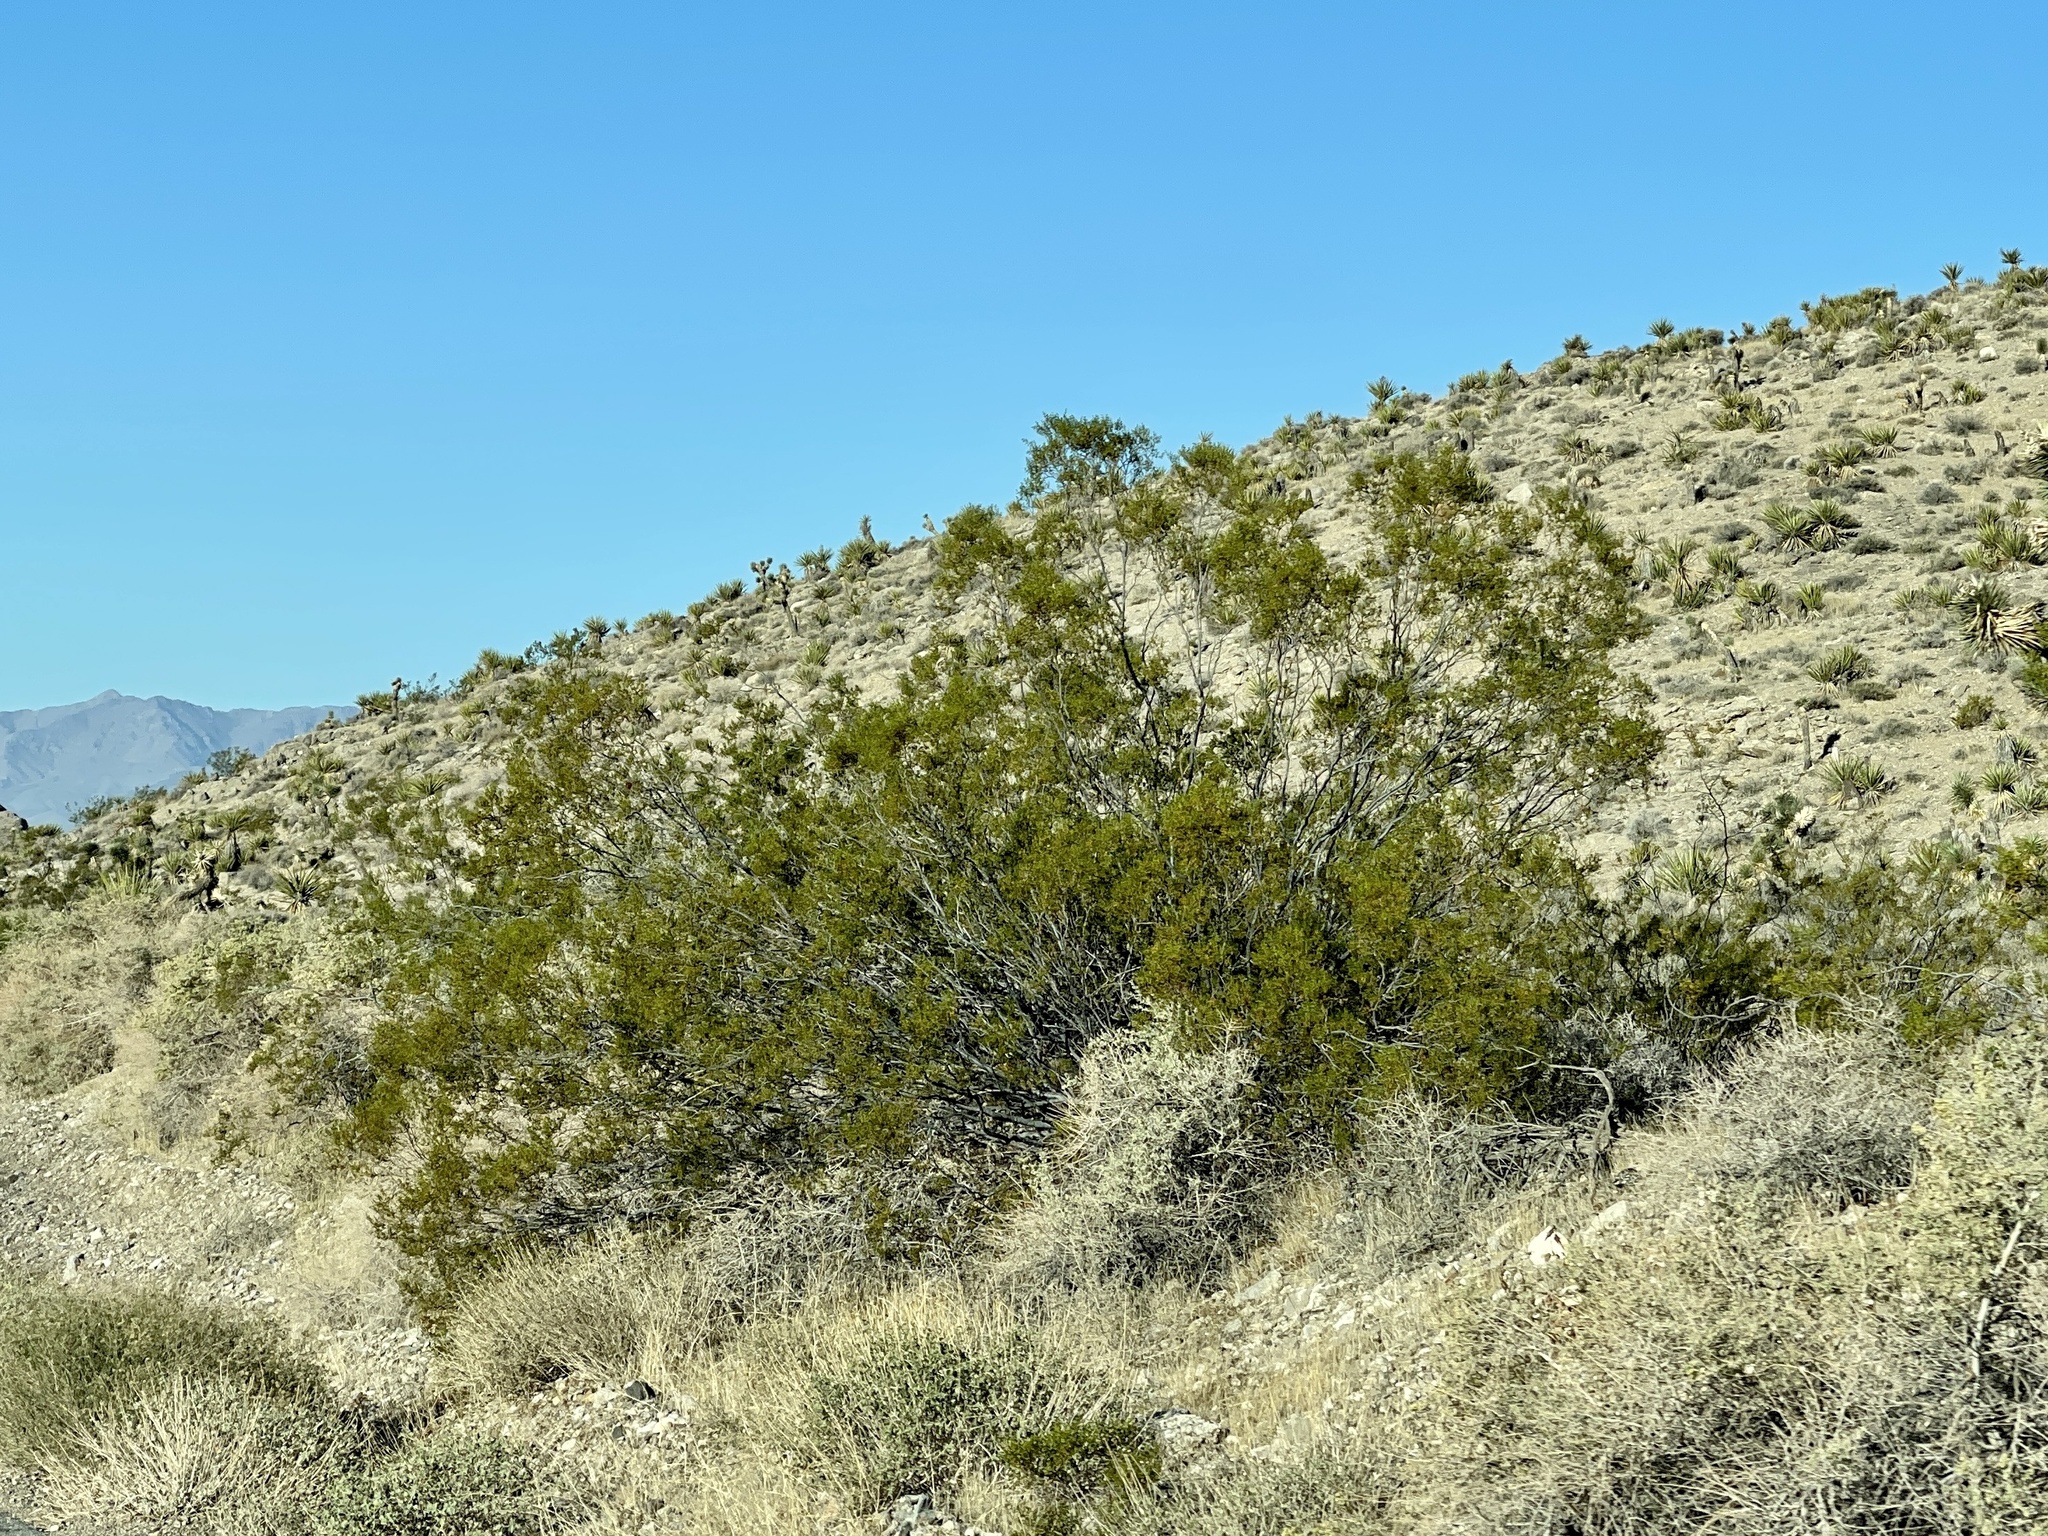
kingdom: Plantae
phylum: Tracheophyta
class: Magnoliopsida
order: Zygophyllales
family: Zygophyllaceae
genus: Larrea
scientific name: Larrea tridentata
